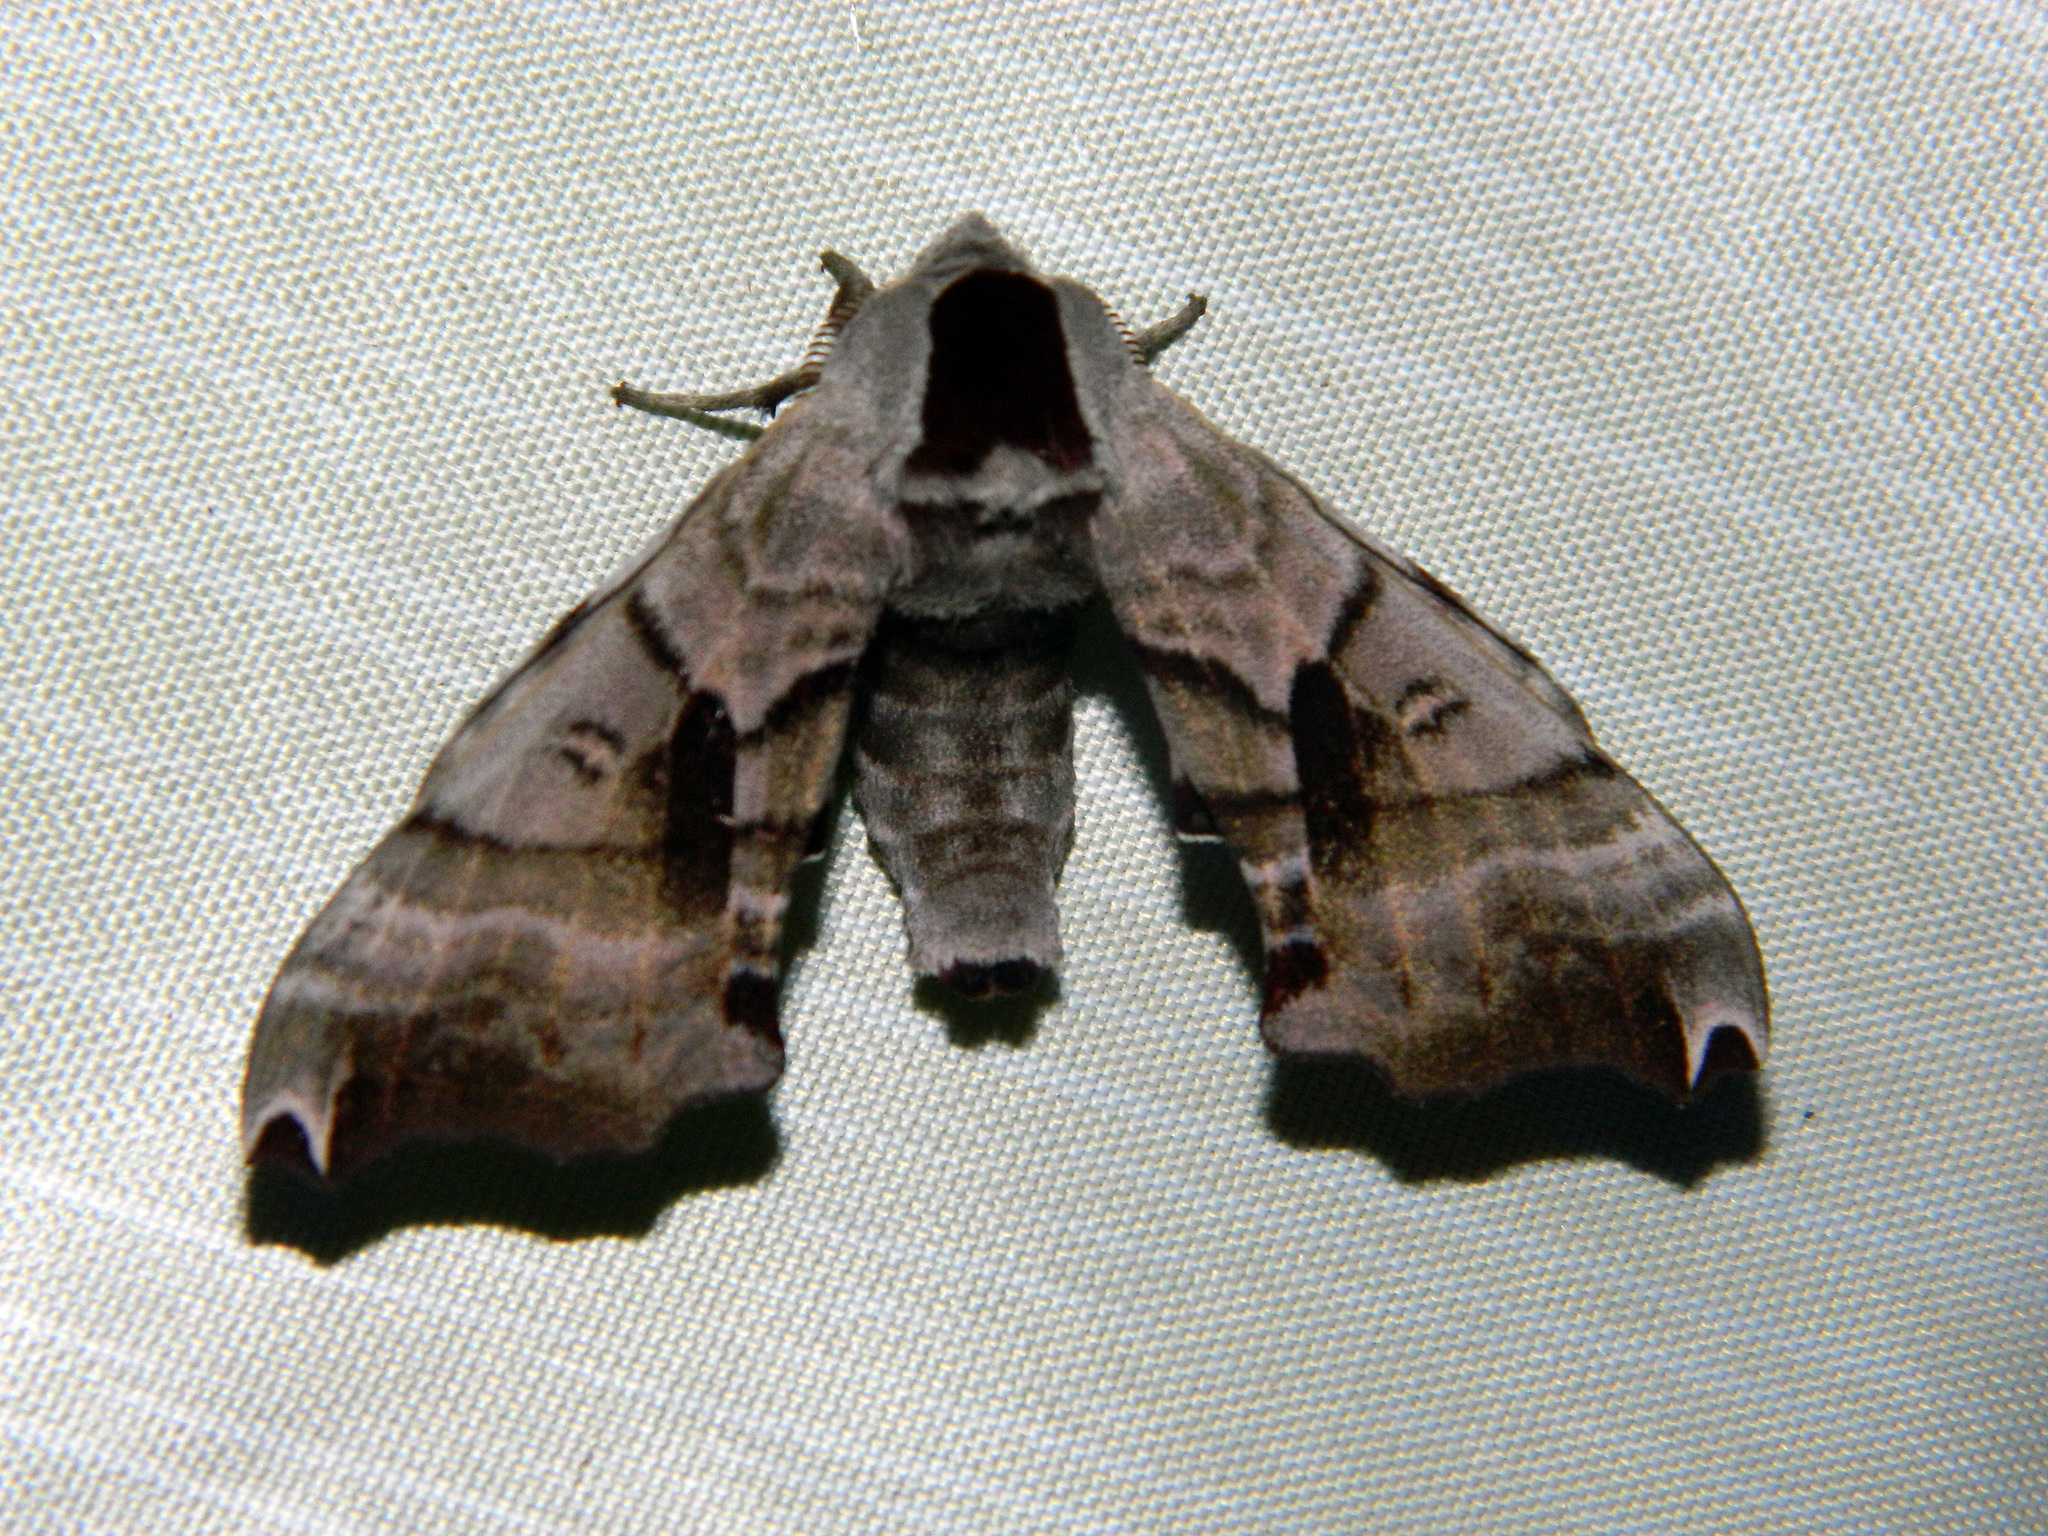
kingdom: Animalia
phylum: Arthropoda
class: Insecta
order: Lepidoptera
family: Sphingidae
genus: Smerinthus
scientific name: Smerinthus jamaicensis
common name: Twin spotted sphinx
